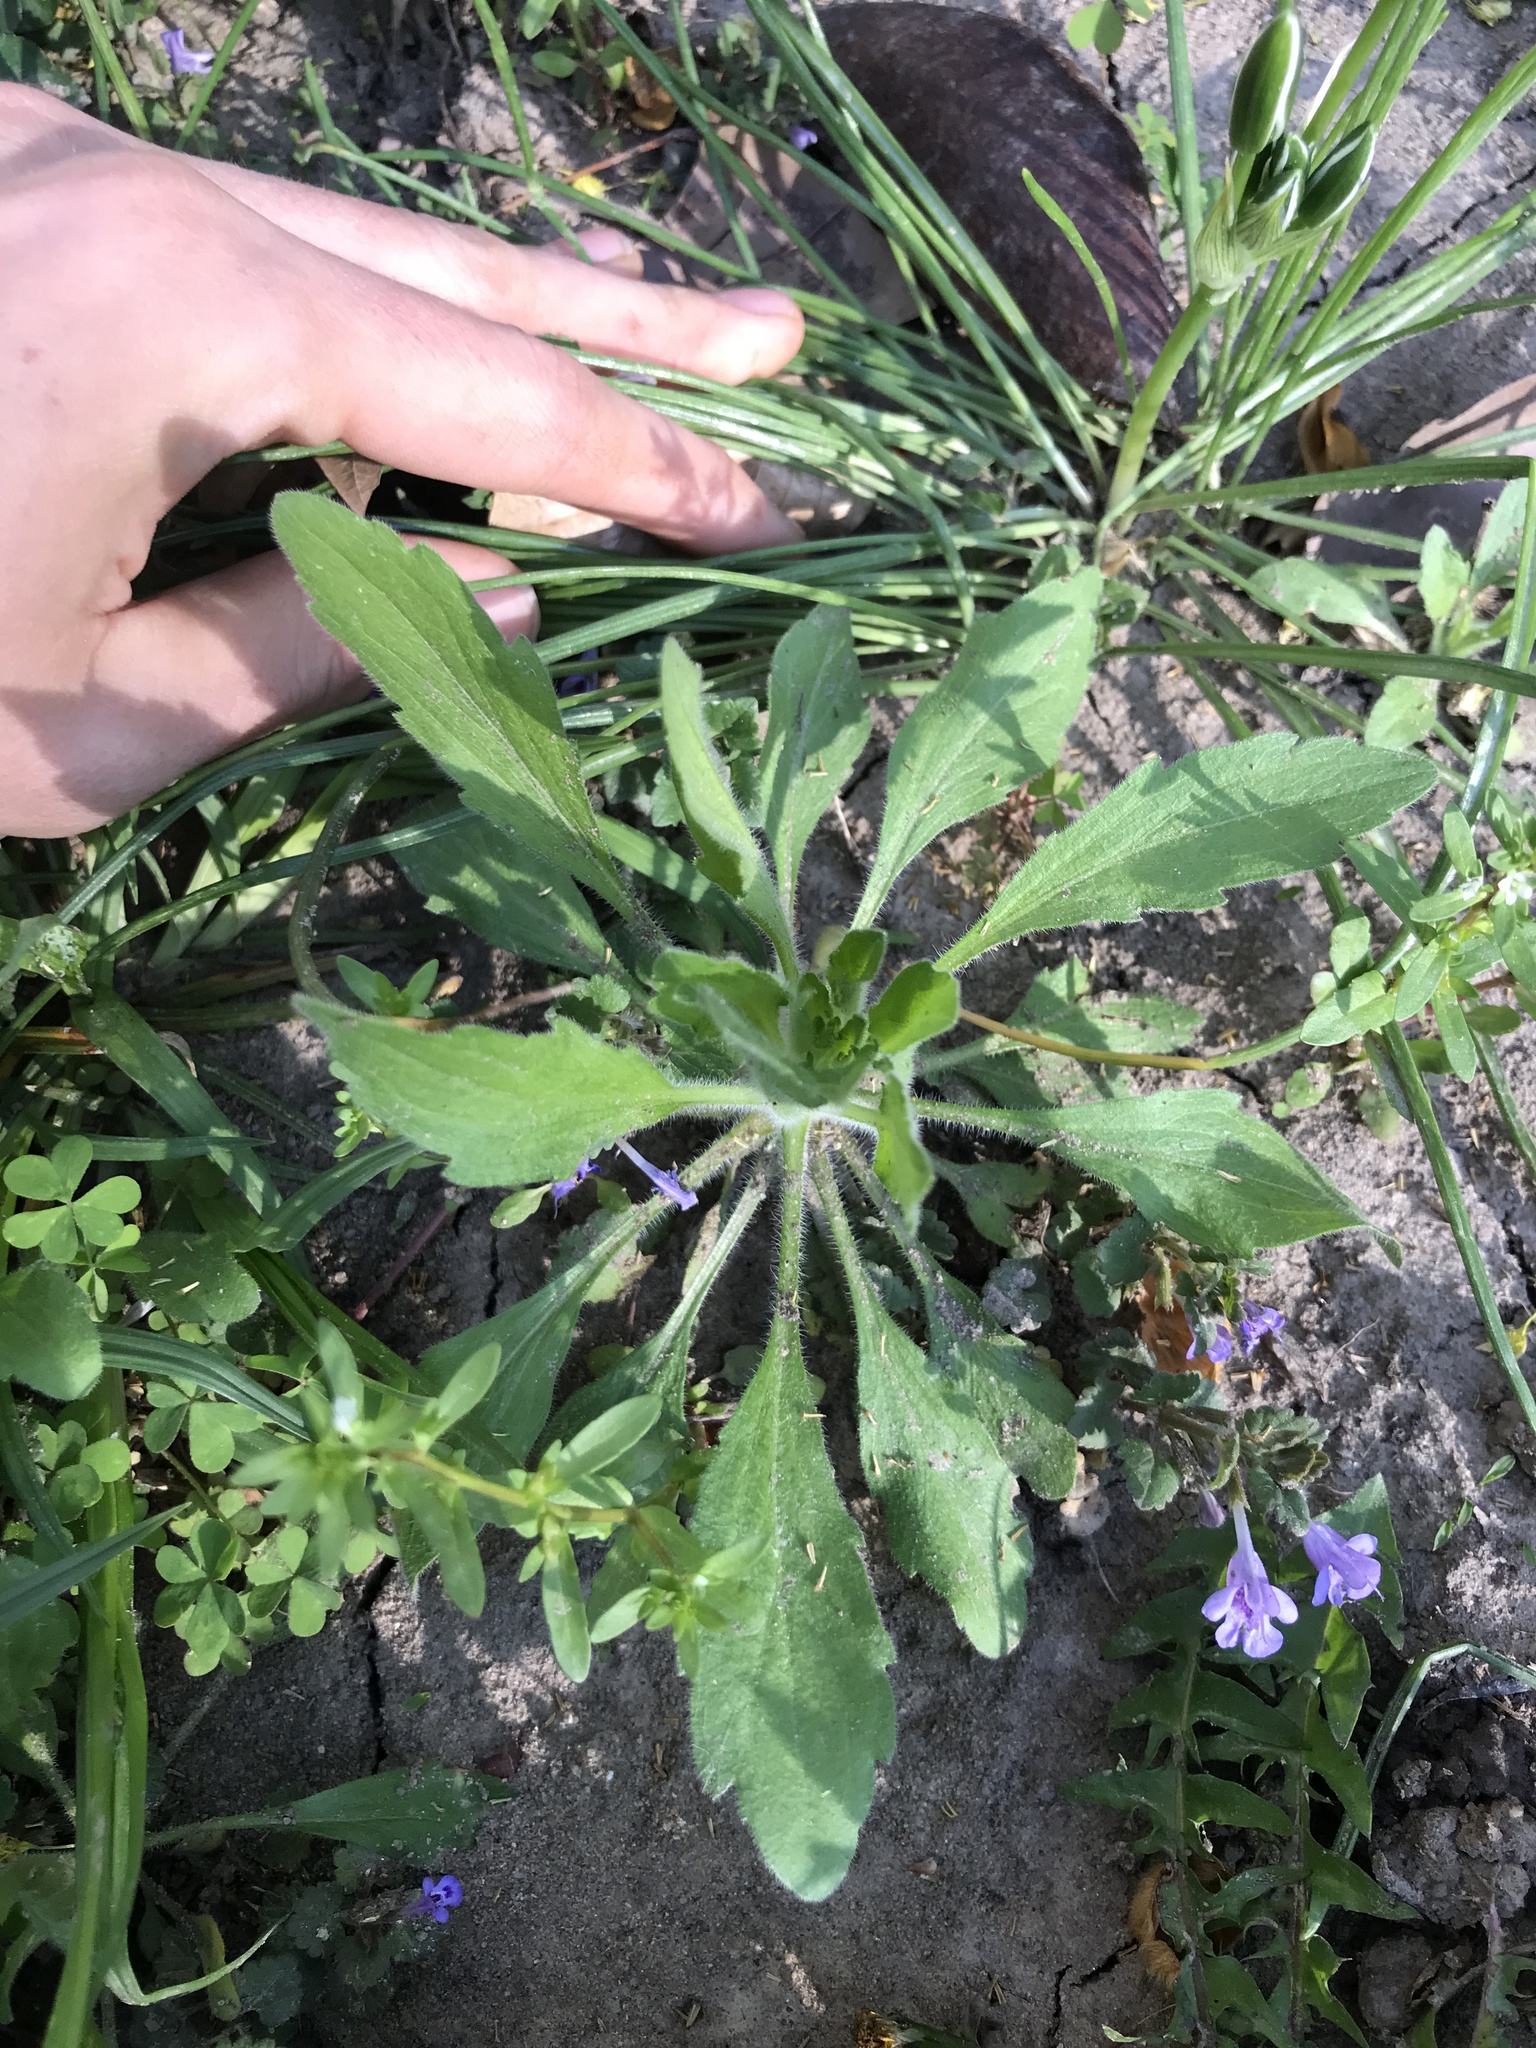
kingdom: Plantae
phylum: Tracheophyta
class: Magnoliopsida
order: Asterales
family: Asteraceae
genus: Erigeron
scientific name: Erigeron canadensis
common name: Canadian fleabane
